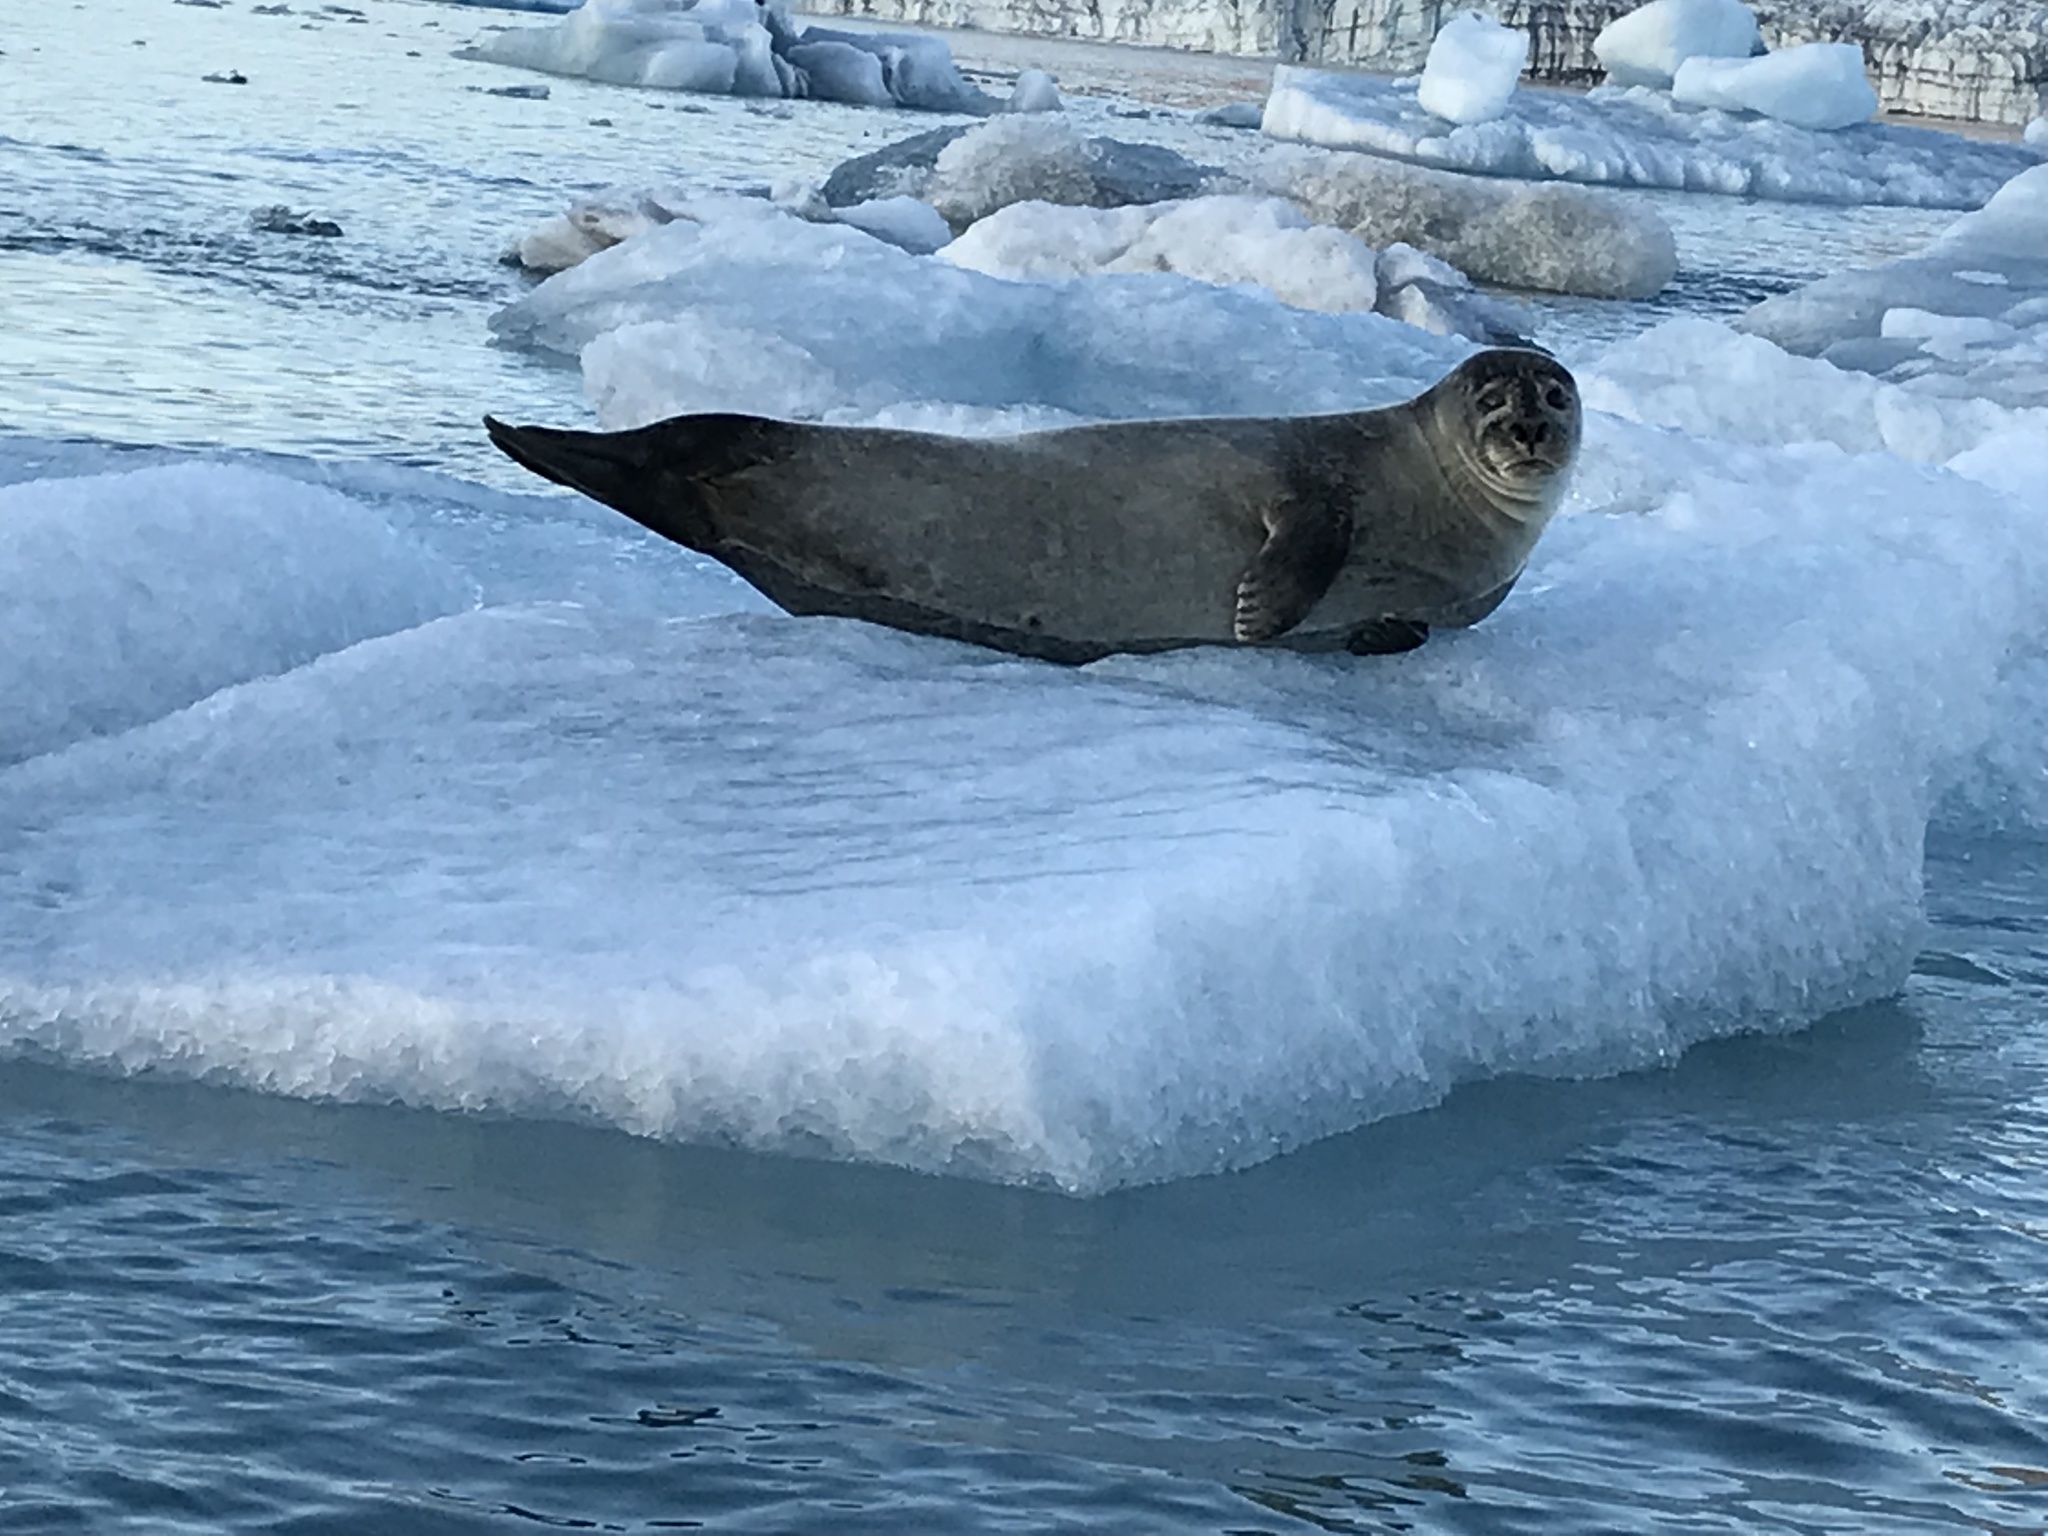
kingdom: Animalia
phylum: Chordata
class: Mammalia
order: Carnivora
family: Phocidae
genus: Phoca
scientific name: Phoca vitulina
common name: Harbor seal
